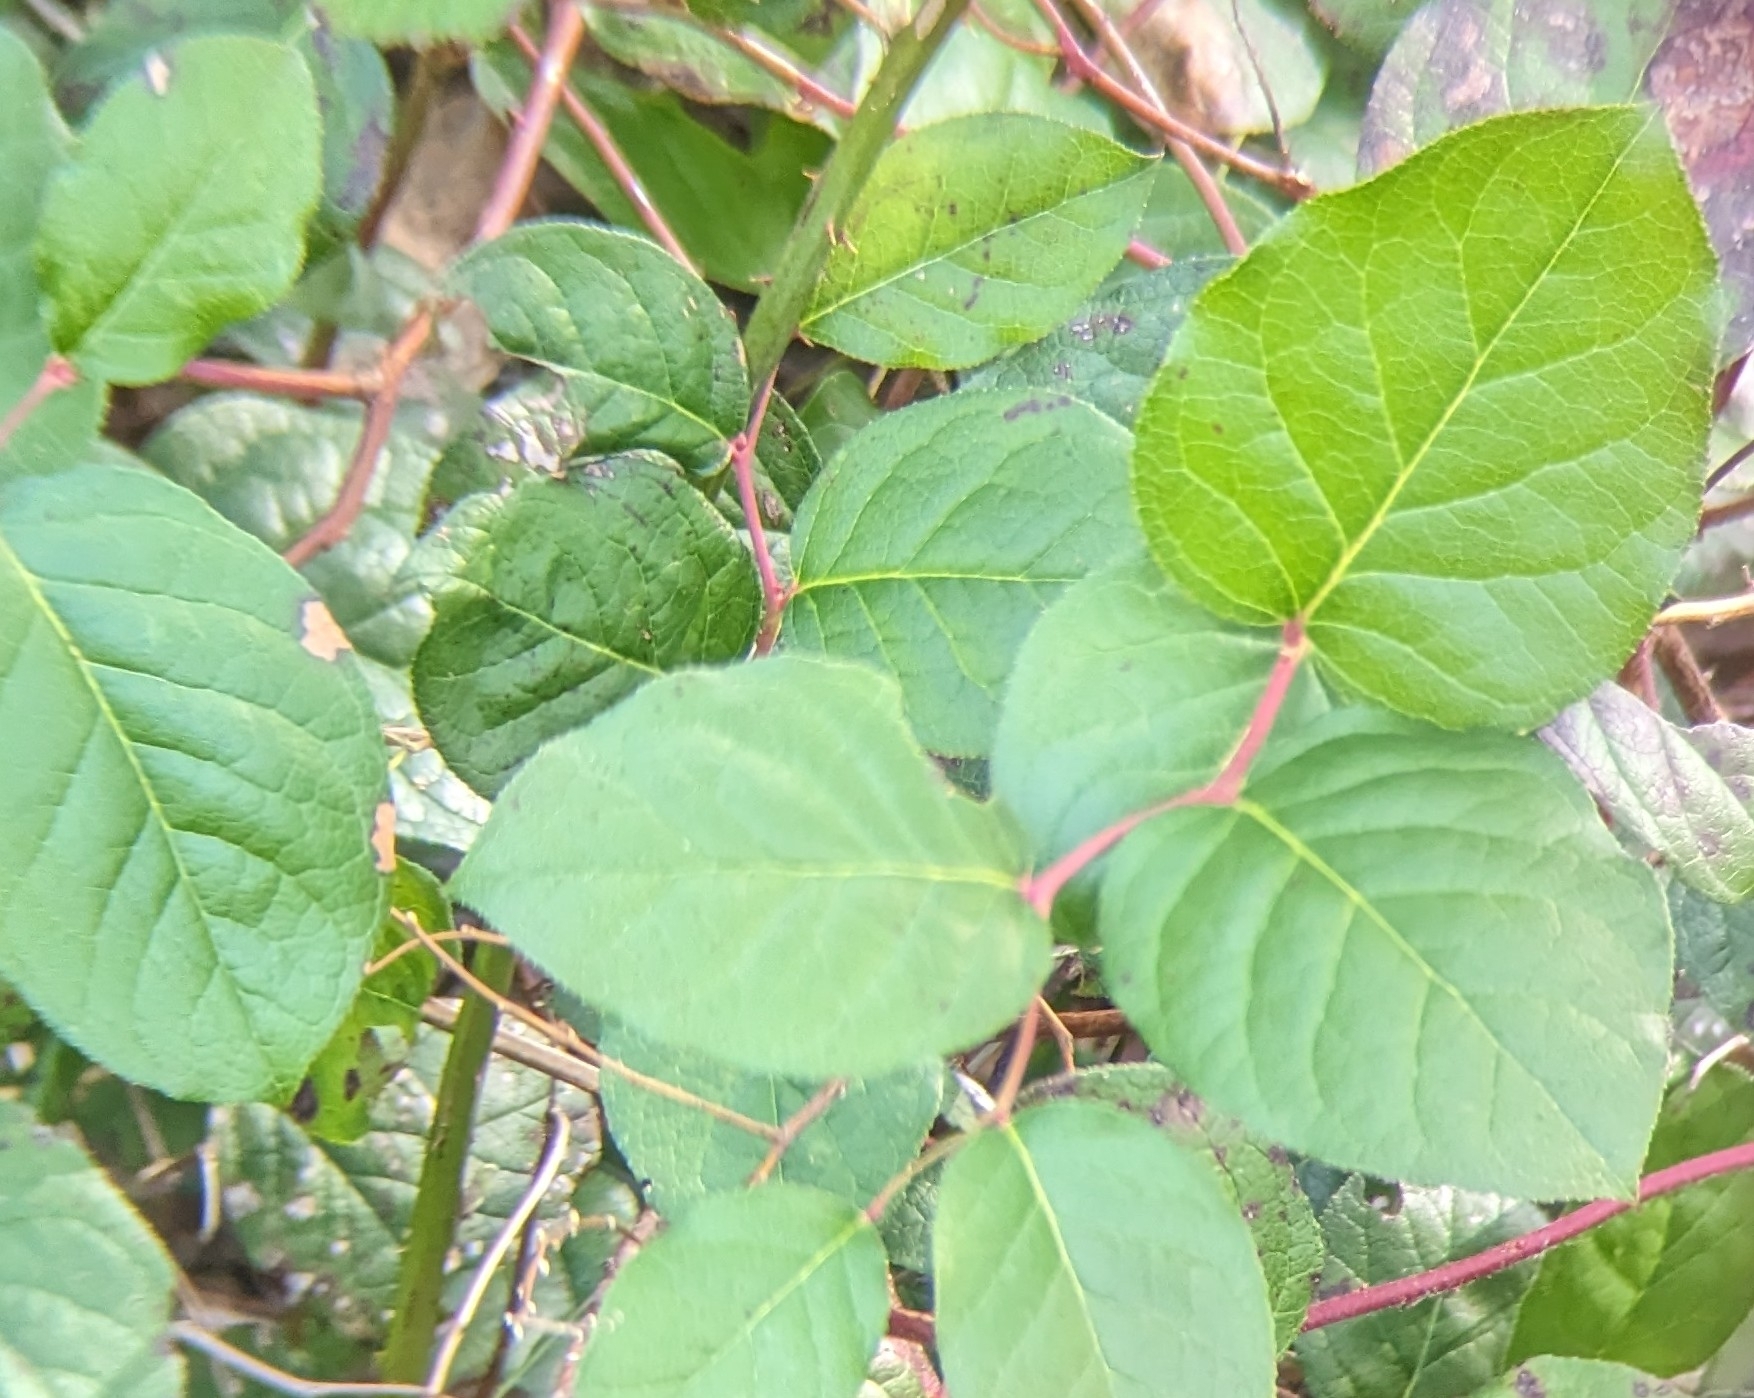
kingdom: Plantae
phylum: Tracheophyta
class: Magnoliopsida
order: Ericales
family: Ericaceae
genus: Gaultheria
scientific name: Gaultheria shallon
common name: Shallon
